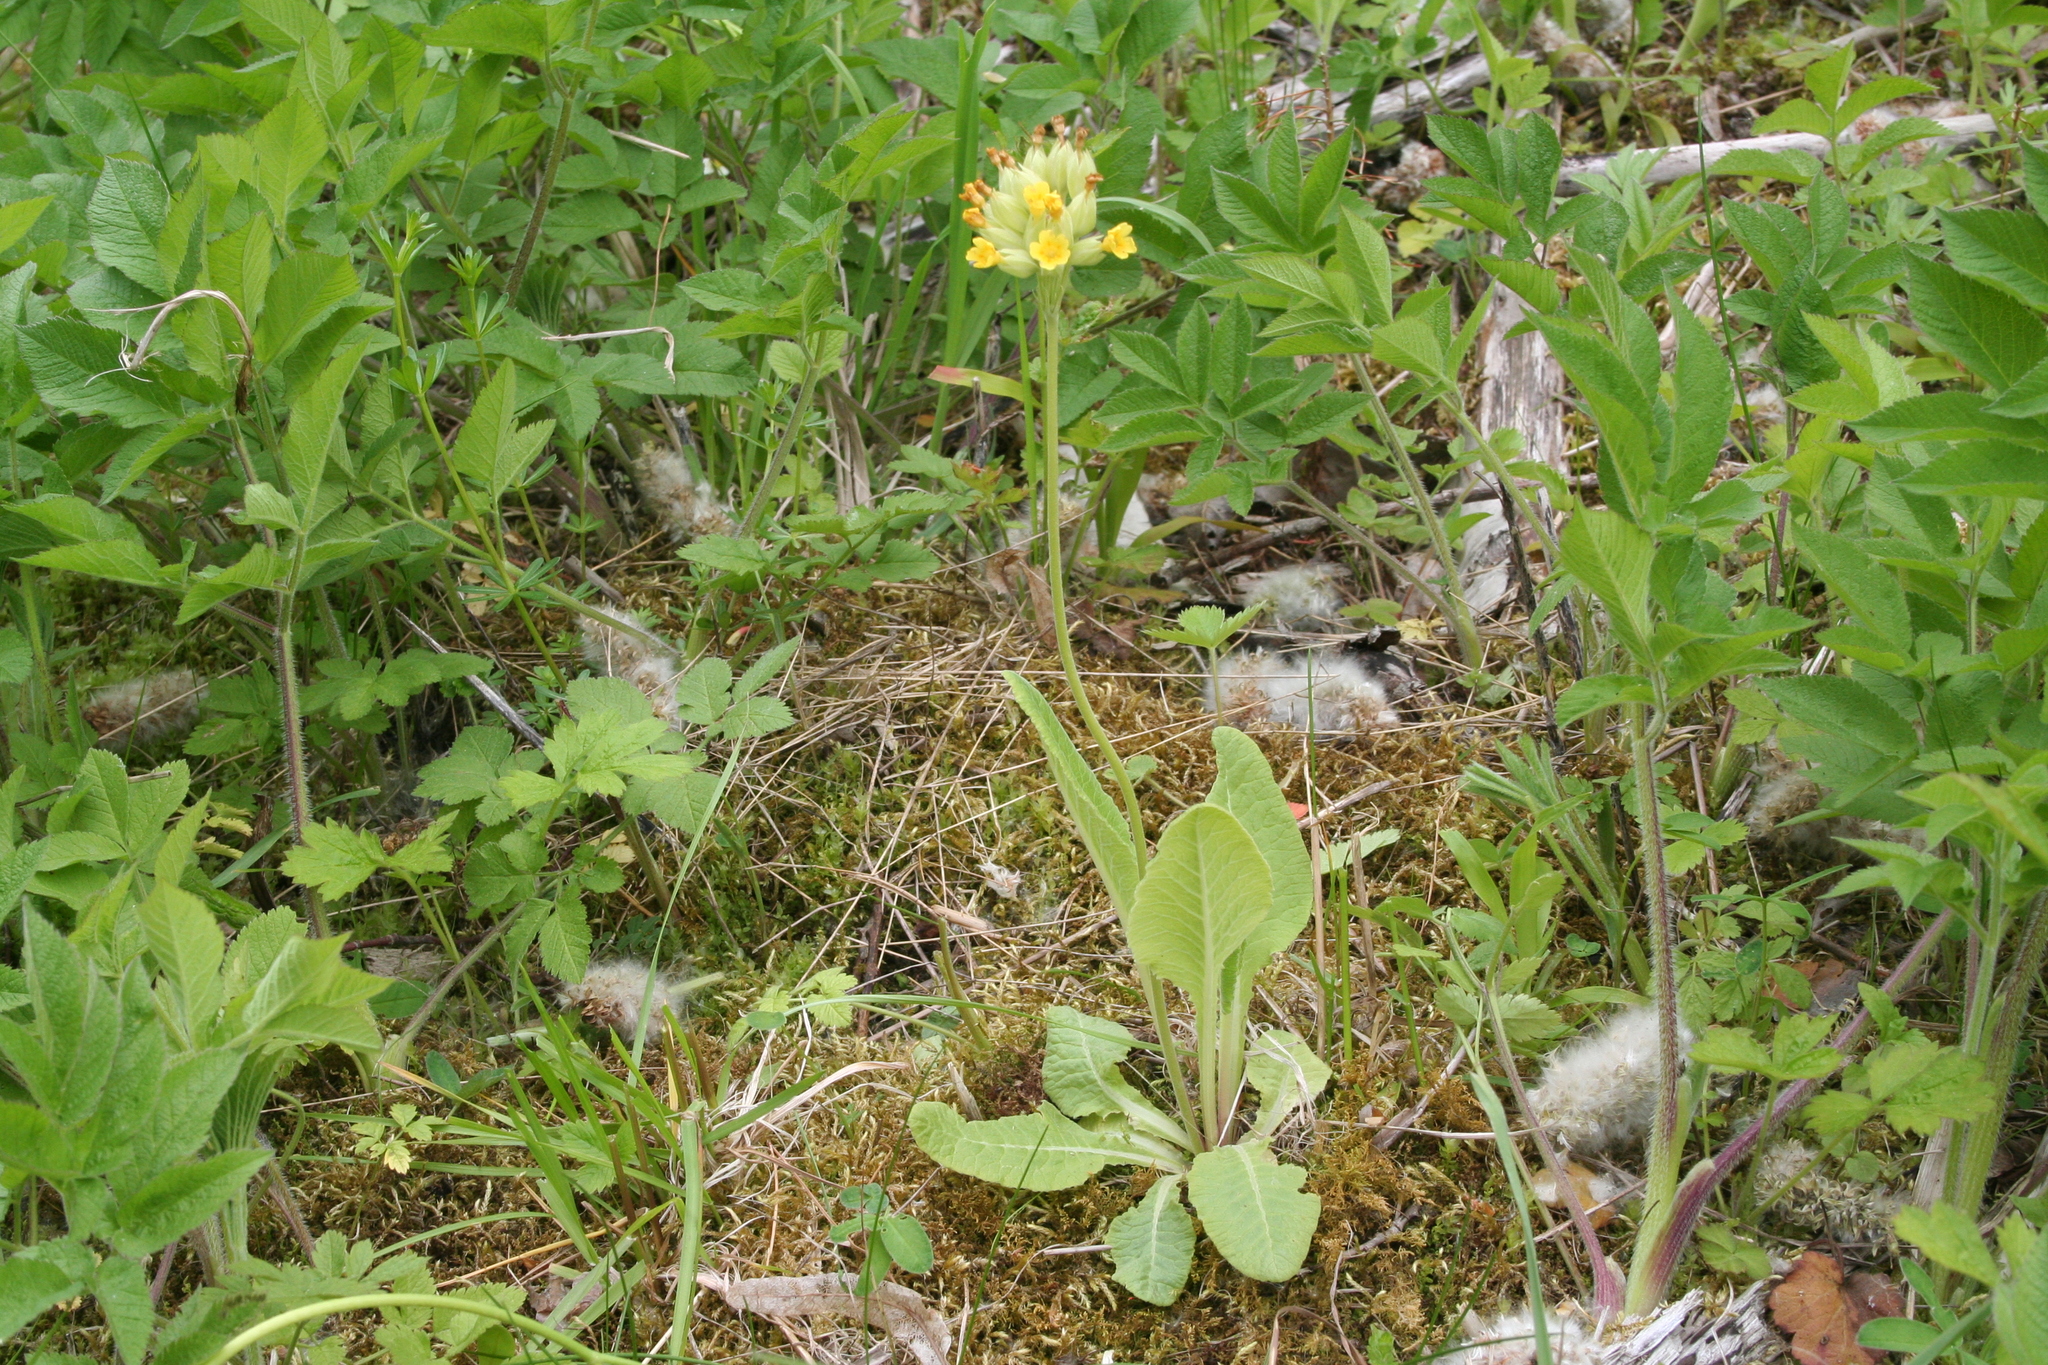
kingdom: Plantae
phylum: Tracheophyta
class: Magnoliopsida
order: Ericales
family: Primulaceae
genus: Primula
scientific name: Primula veris
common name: Cowslip
